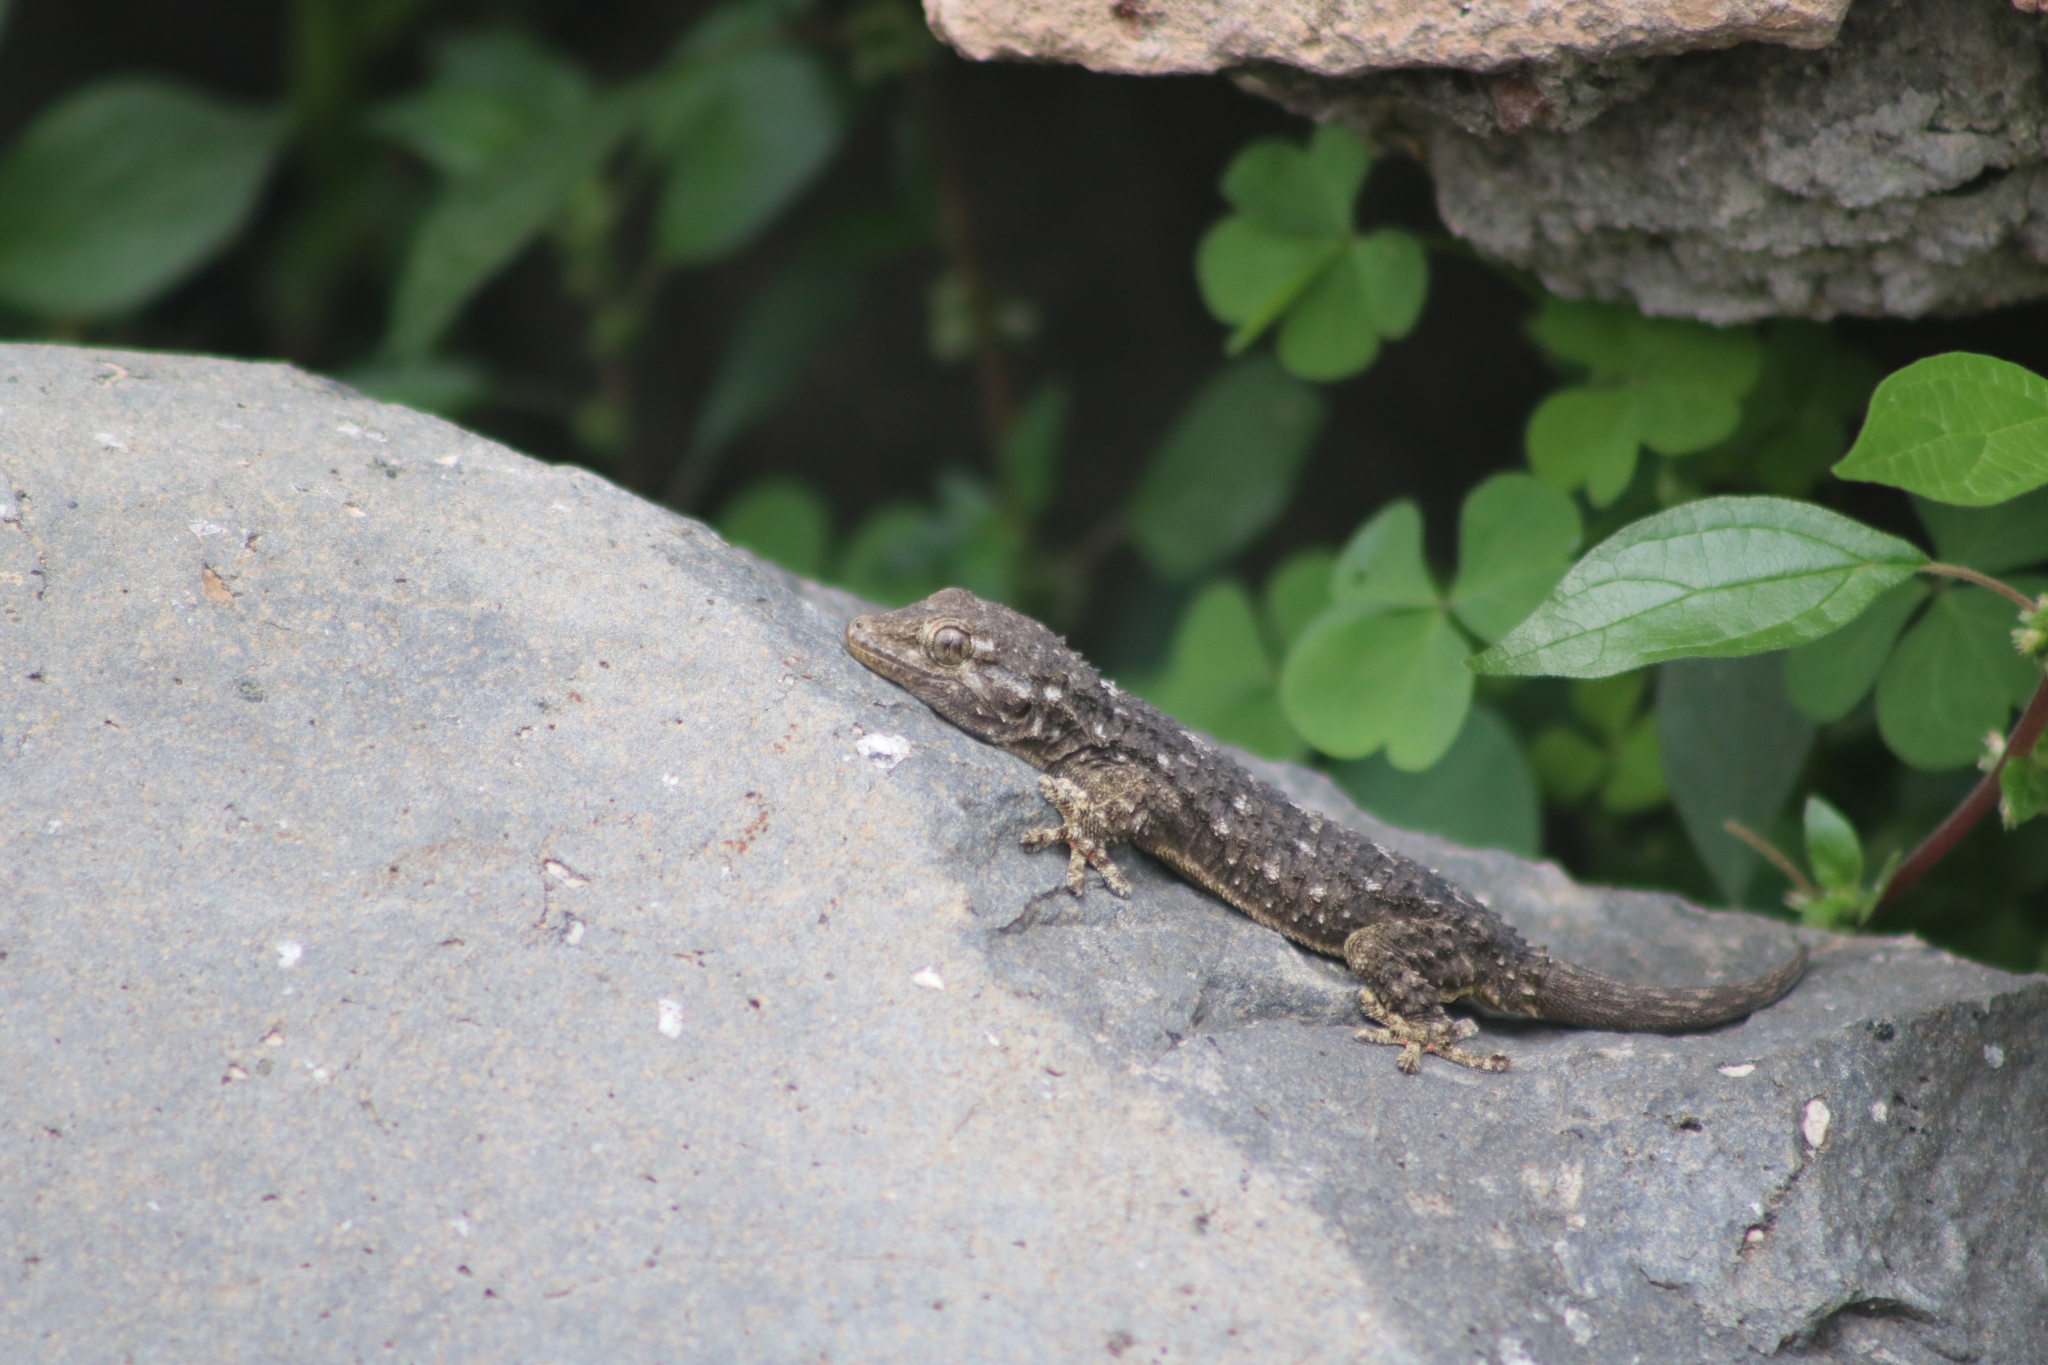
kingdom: Animalia
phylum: Chordata
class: Squamata
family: Phyllodactylidae
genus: Tarentola
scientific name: Tarentola mauritanica
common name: Moorish gecko
